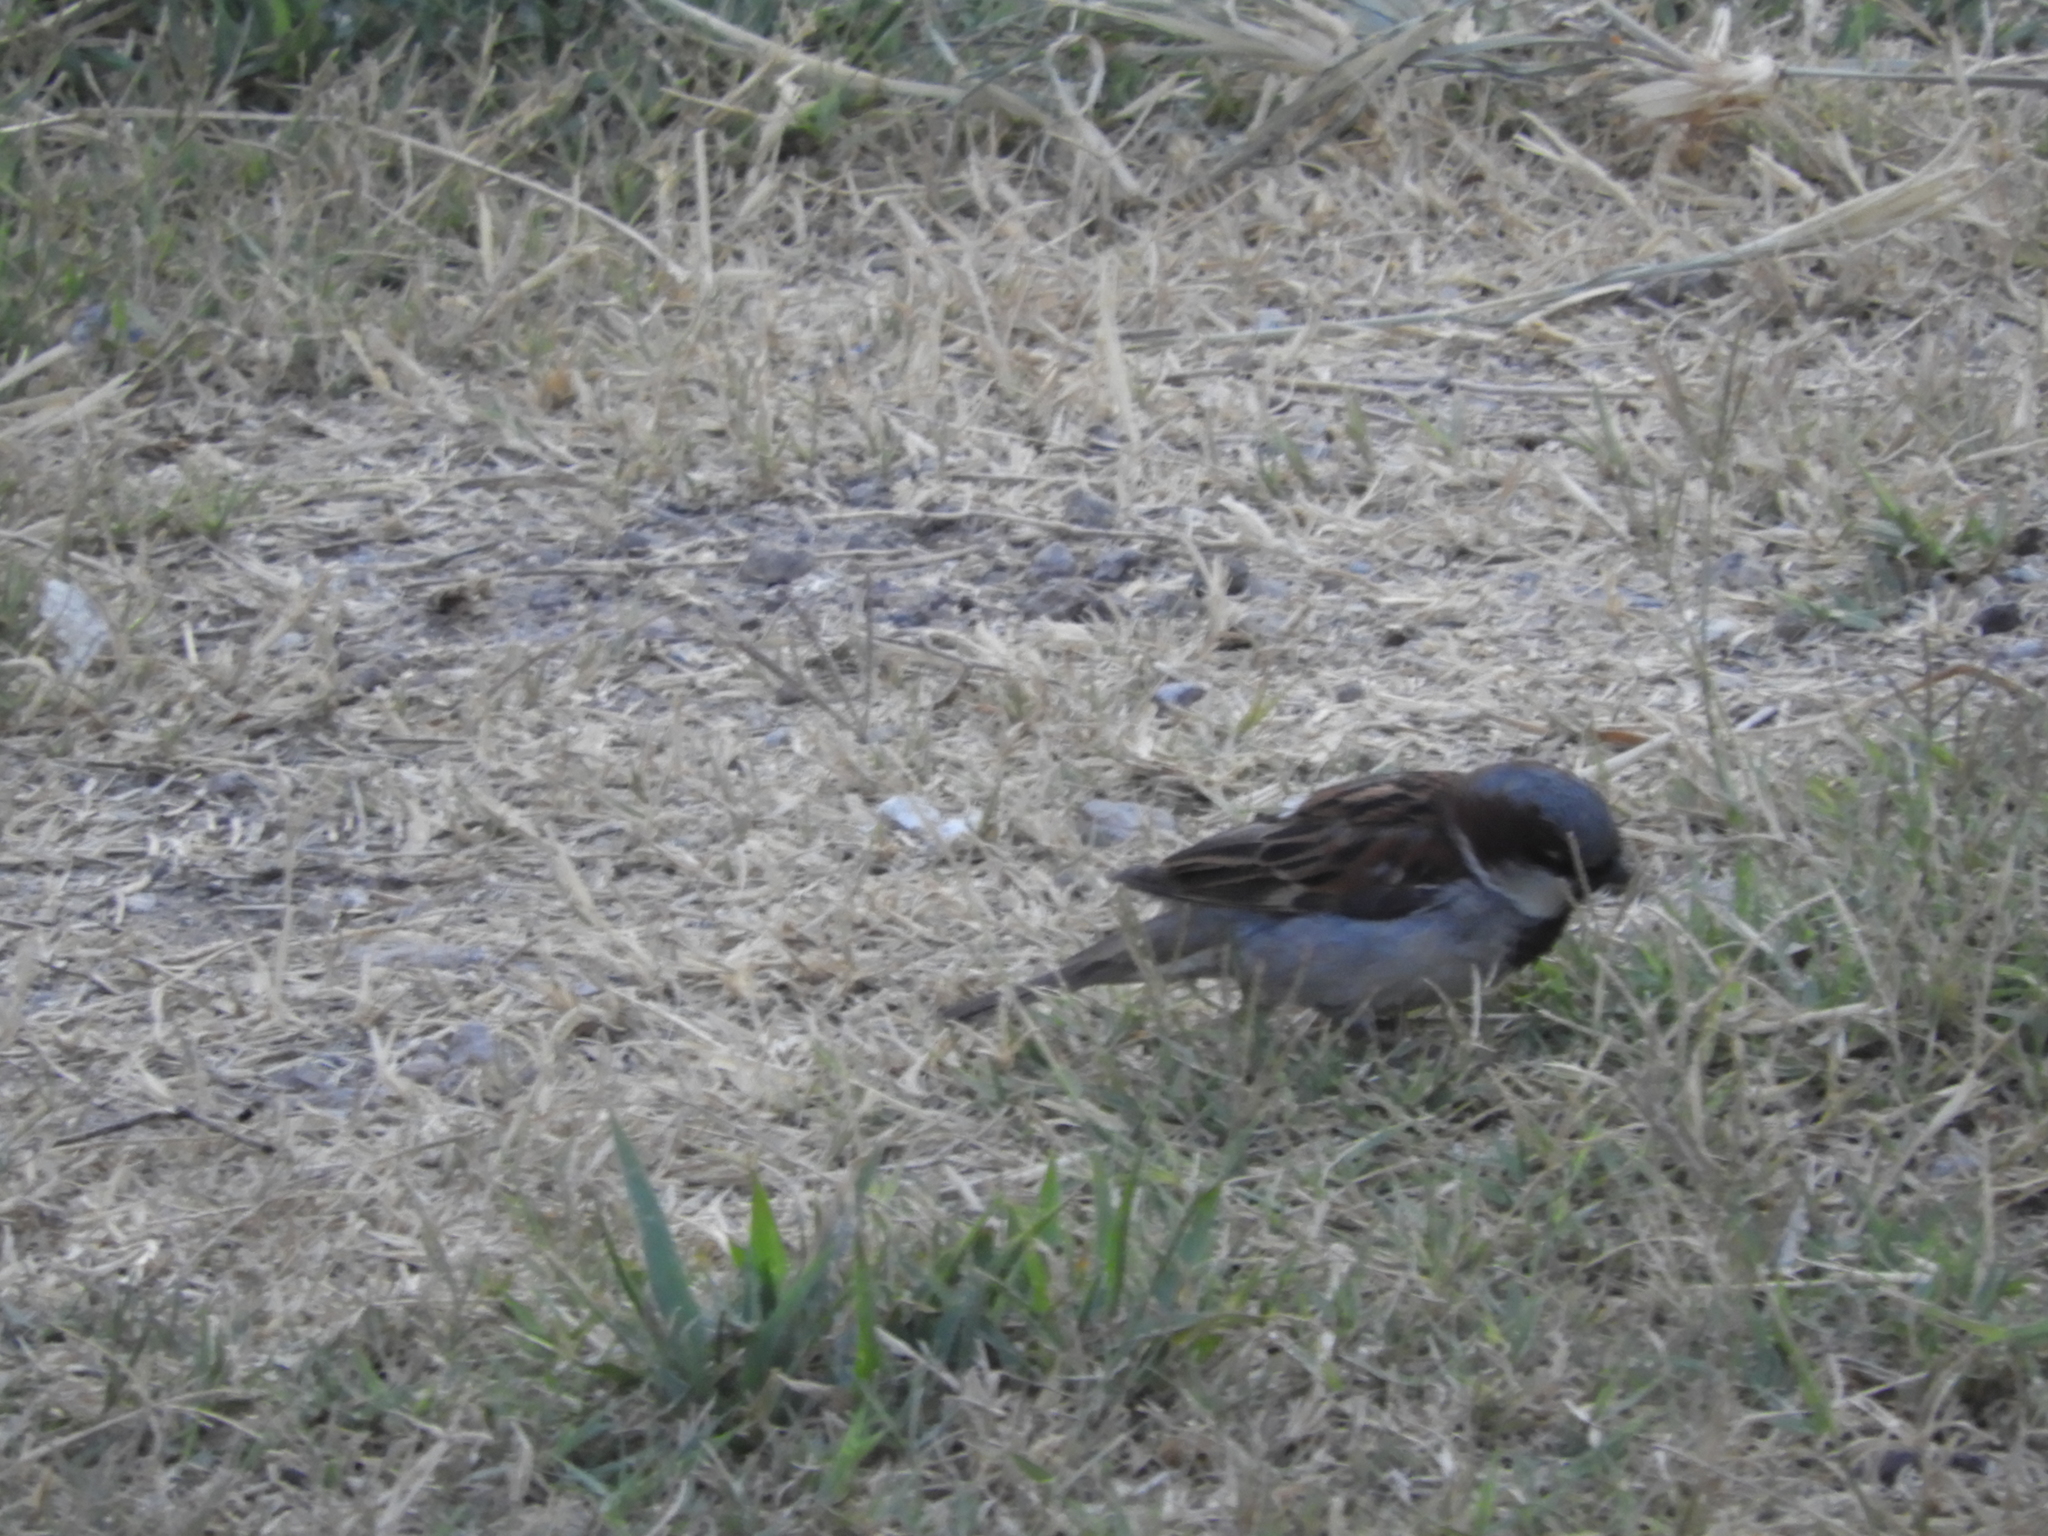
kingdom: Animalia
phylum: Chordata
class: Aves
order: Passeriformes
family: Passeridae
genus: Passer
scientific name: Passer domesticus
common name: House sparrow
